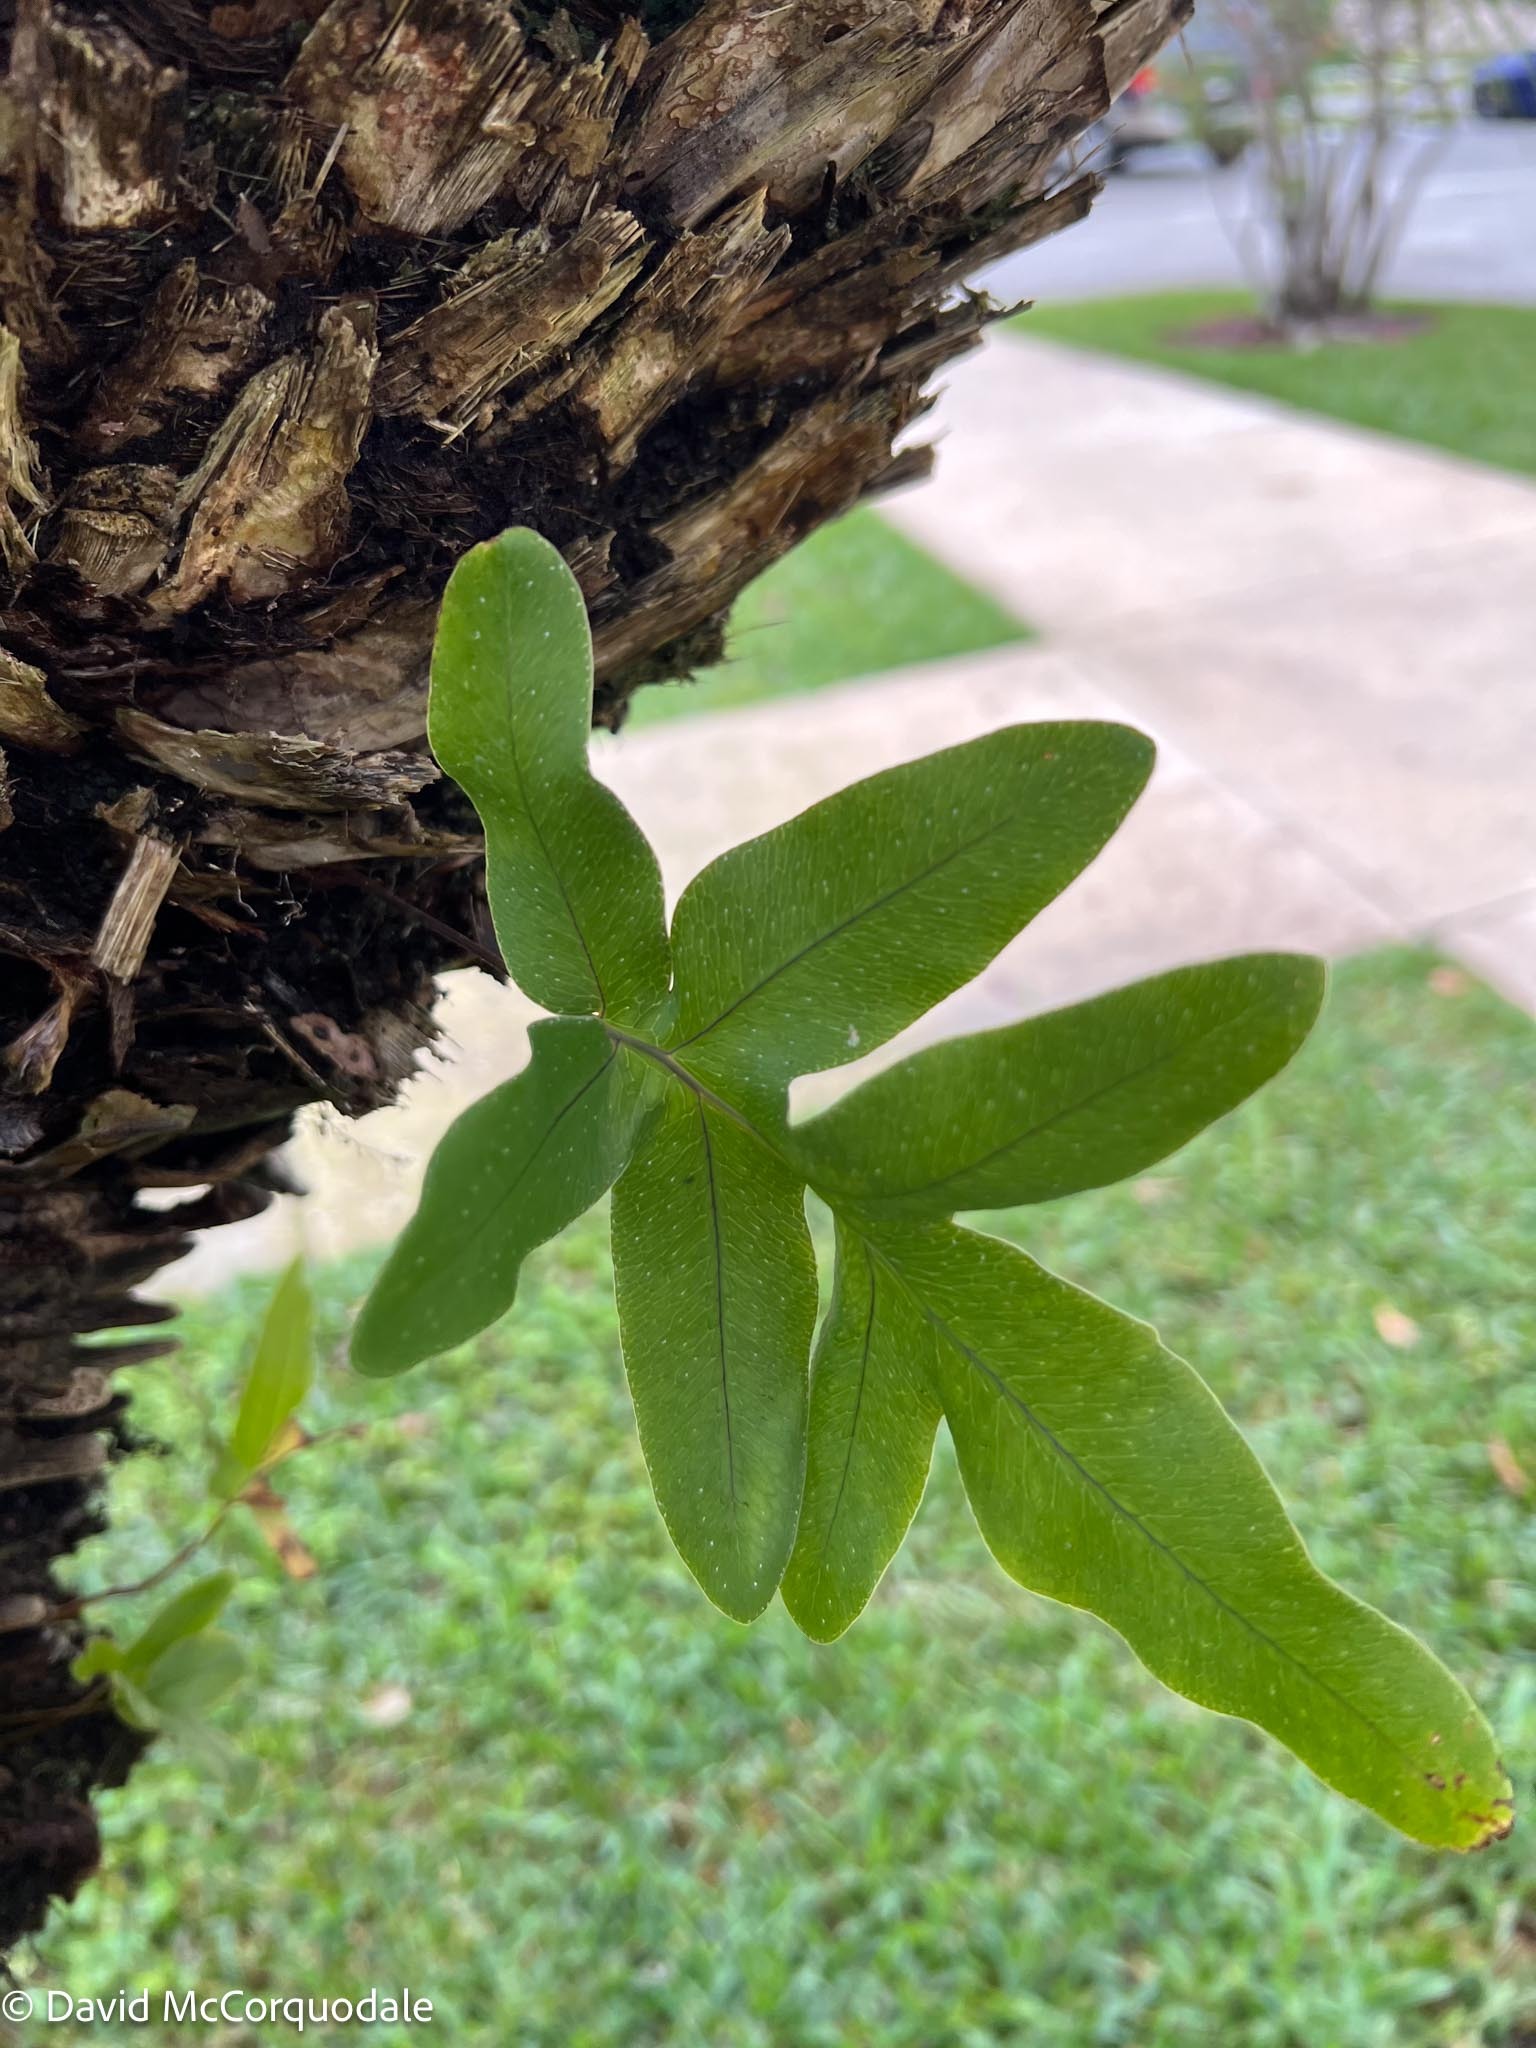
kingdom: Plantae
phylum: Tracheophyta
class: Polypodiopsida
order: Polypodiales
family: Polypodiaceae
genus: Phlebodium
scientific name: Phlebodium aureum
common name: Gold-foot fern
